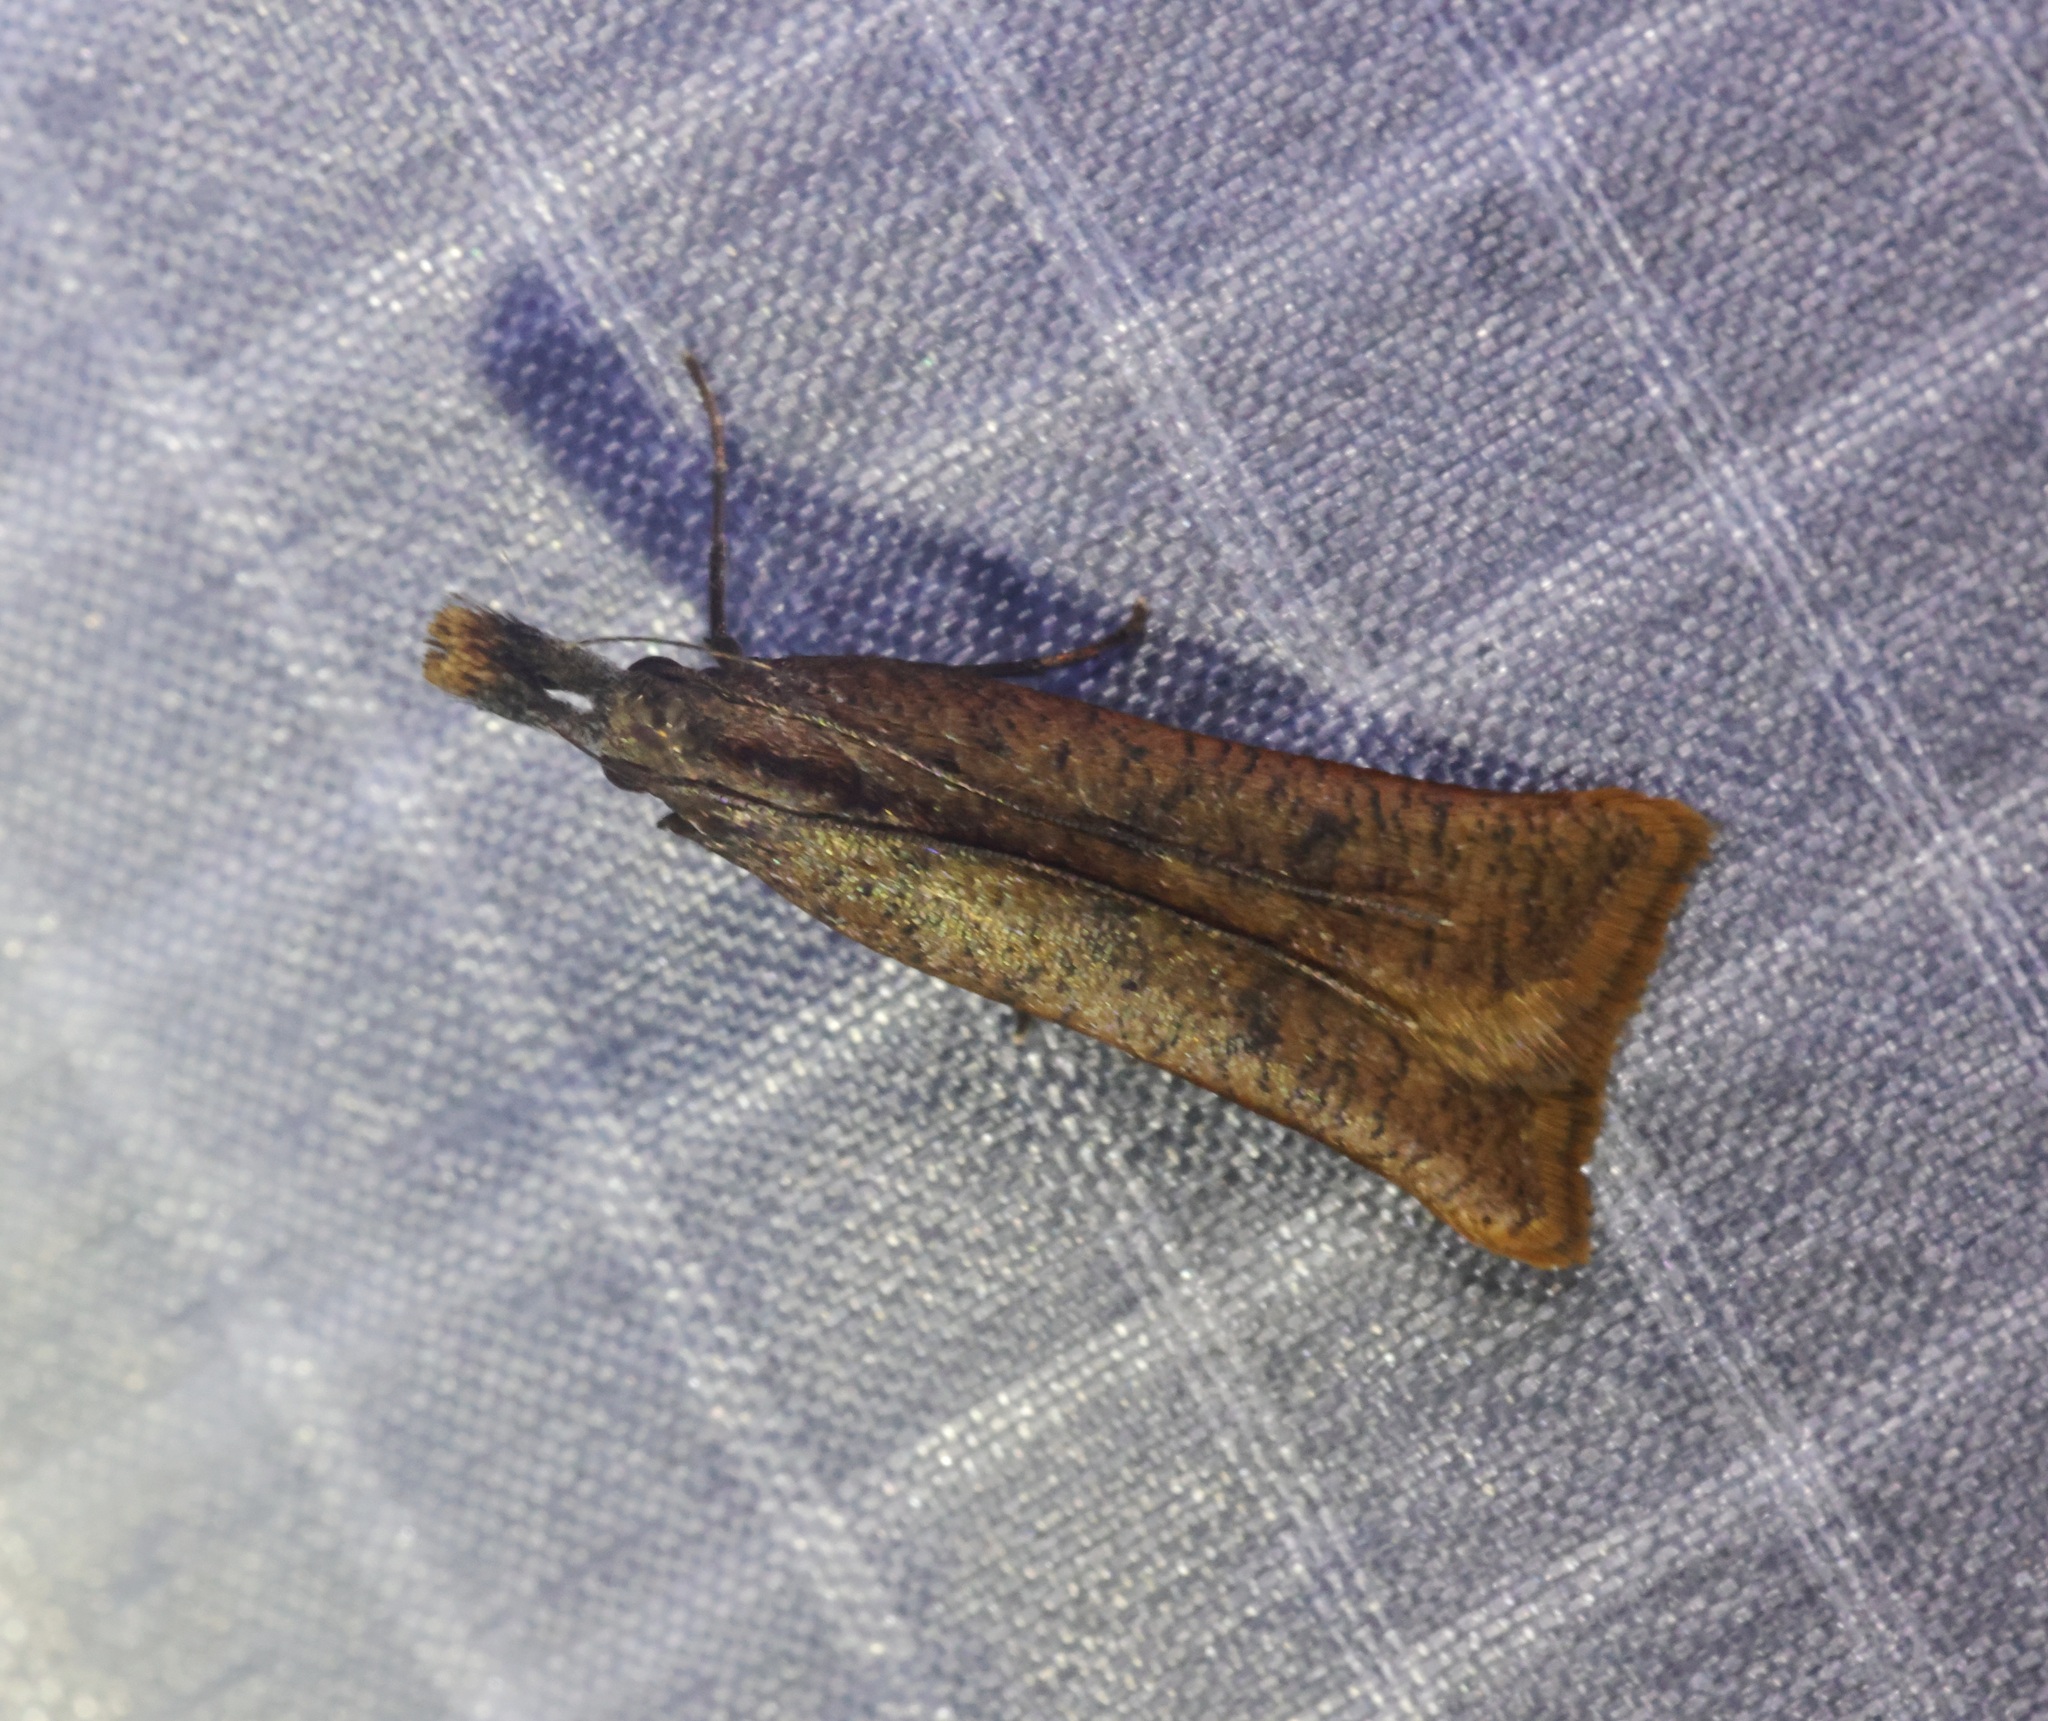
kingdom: Animalia
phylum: Arthropoda
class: Insecta
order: Lepidoptera
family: Gelechiidae
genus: Dichomeris
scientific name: Dichomeris zonata
